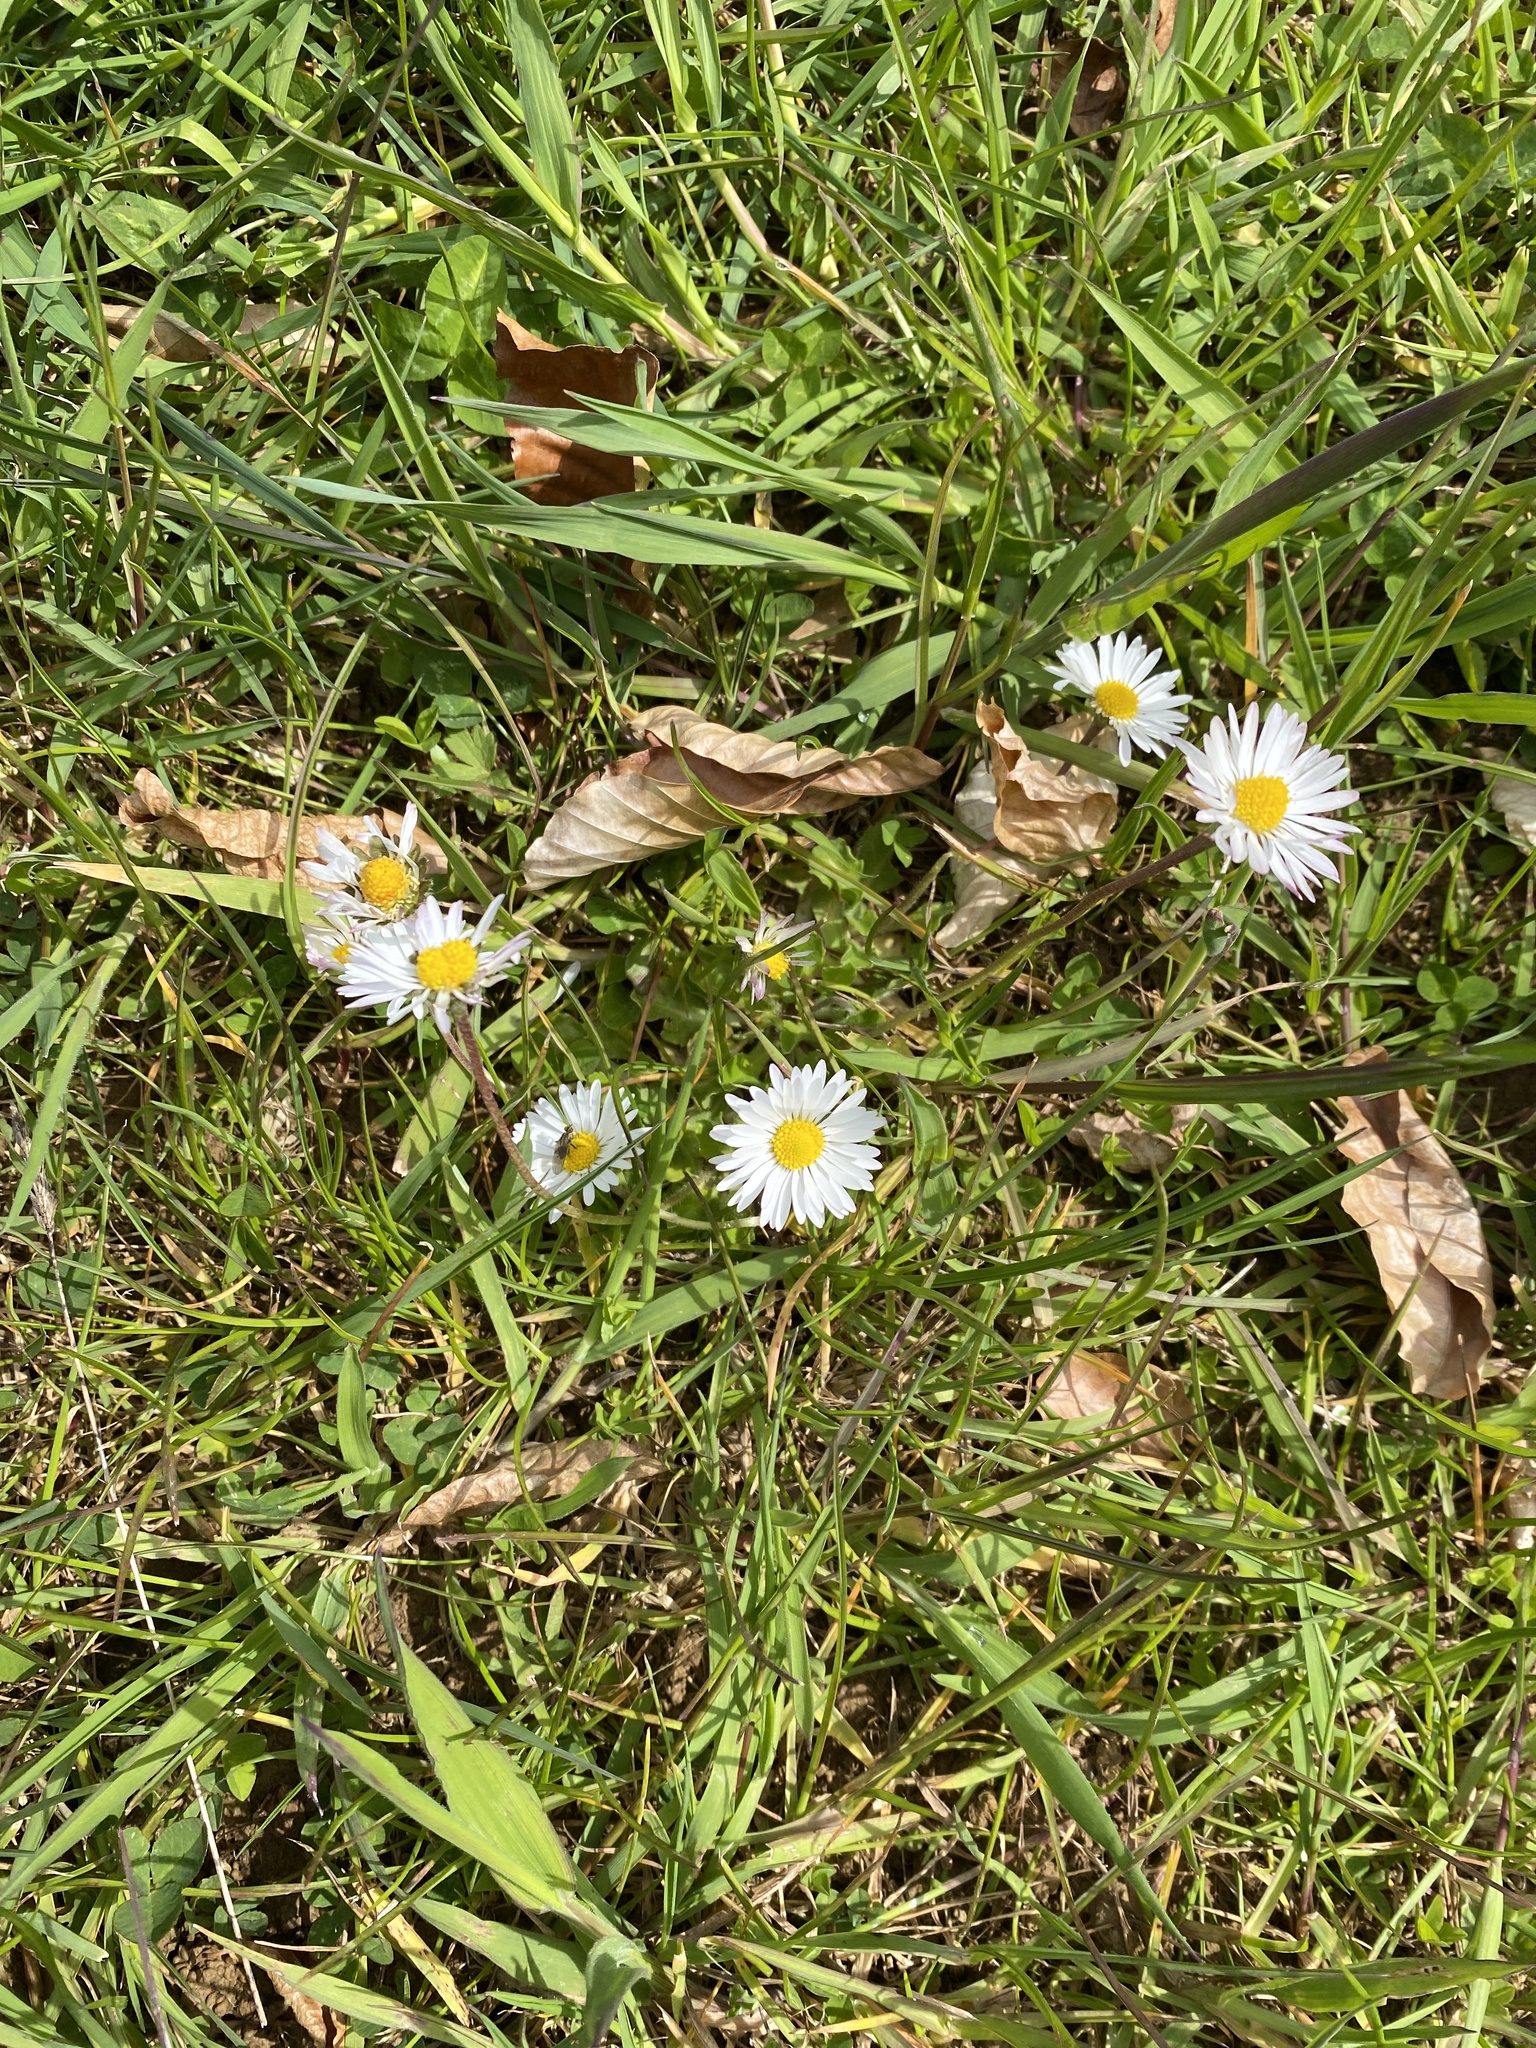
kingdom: Plantae
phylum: Tracheophyta
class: Magnoliopsida
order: Asterales
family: Asteraceae
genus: Bellis
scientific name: Bellis perennis
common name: Lawndaisy
